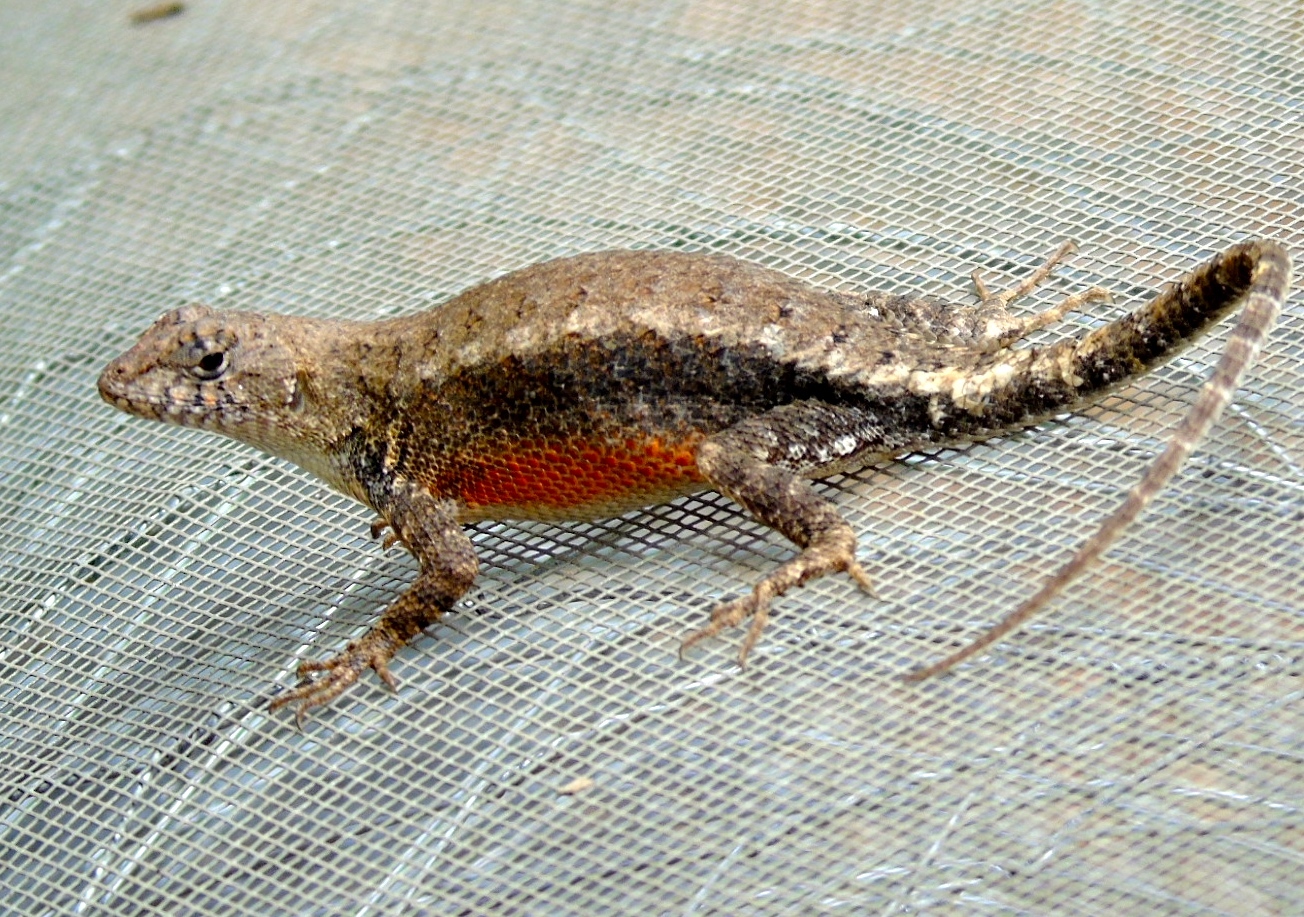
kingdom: Animalia
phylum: Chordata
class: Squamata
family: Phrynosomatidae
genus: Sceloporus
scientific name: Sceloporus nelsoni
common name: Nelson's spiny lizard
